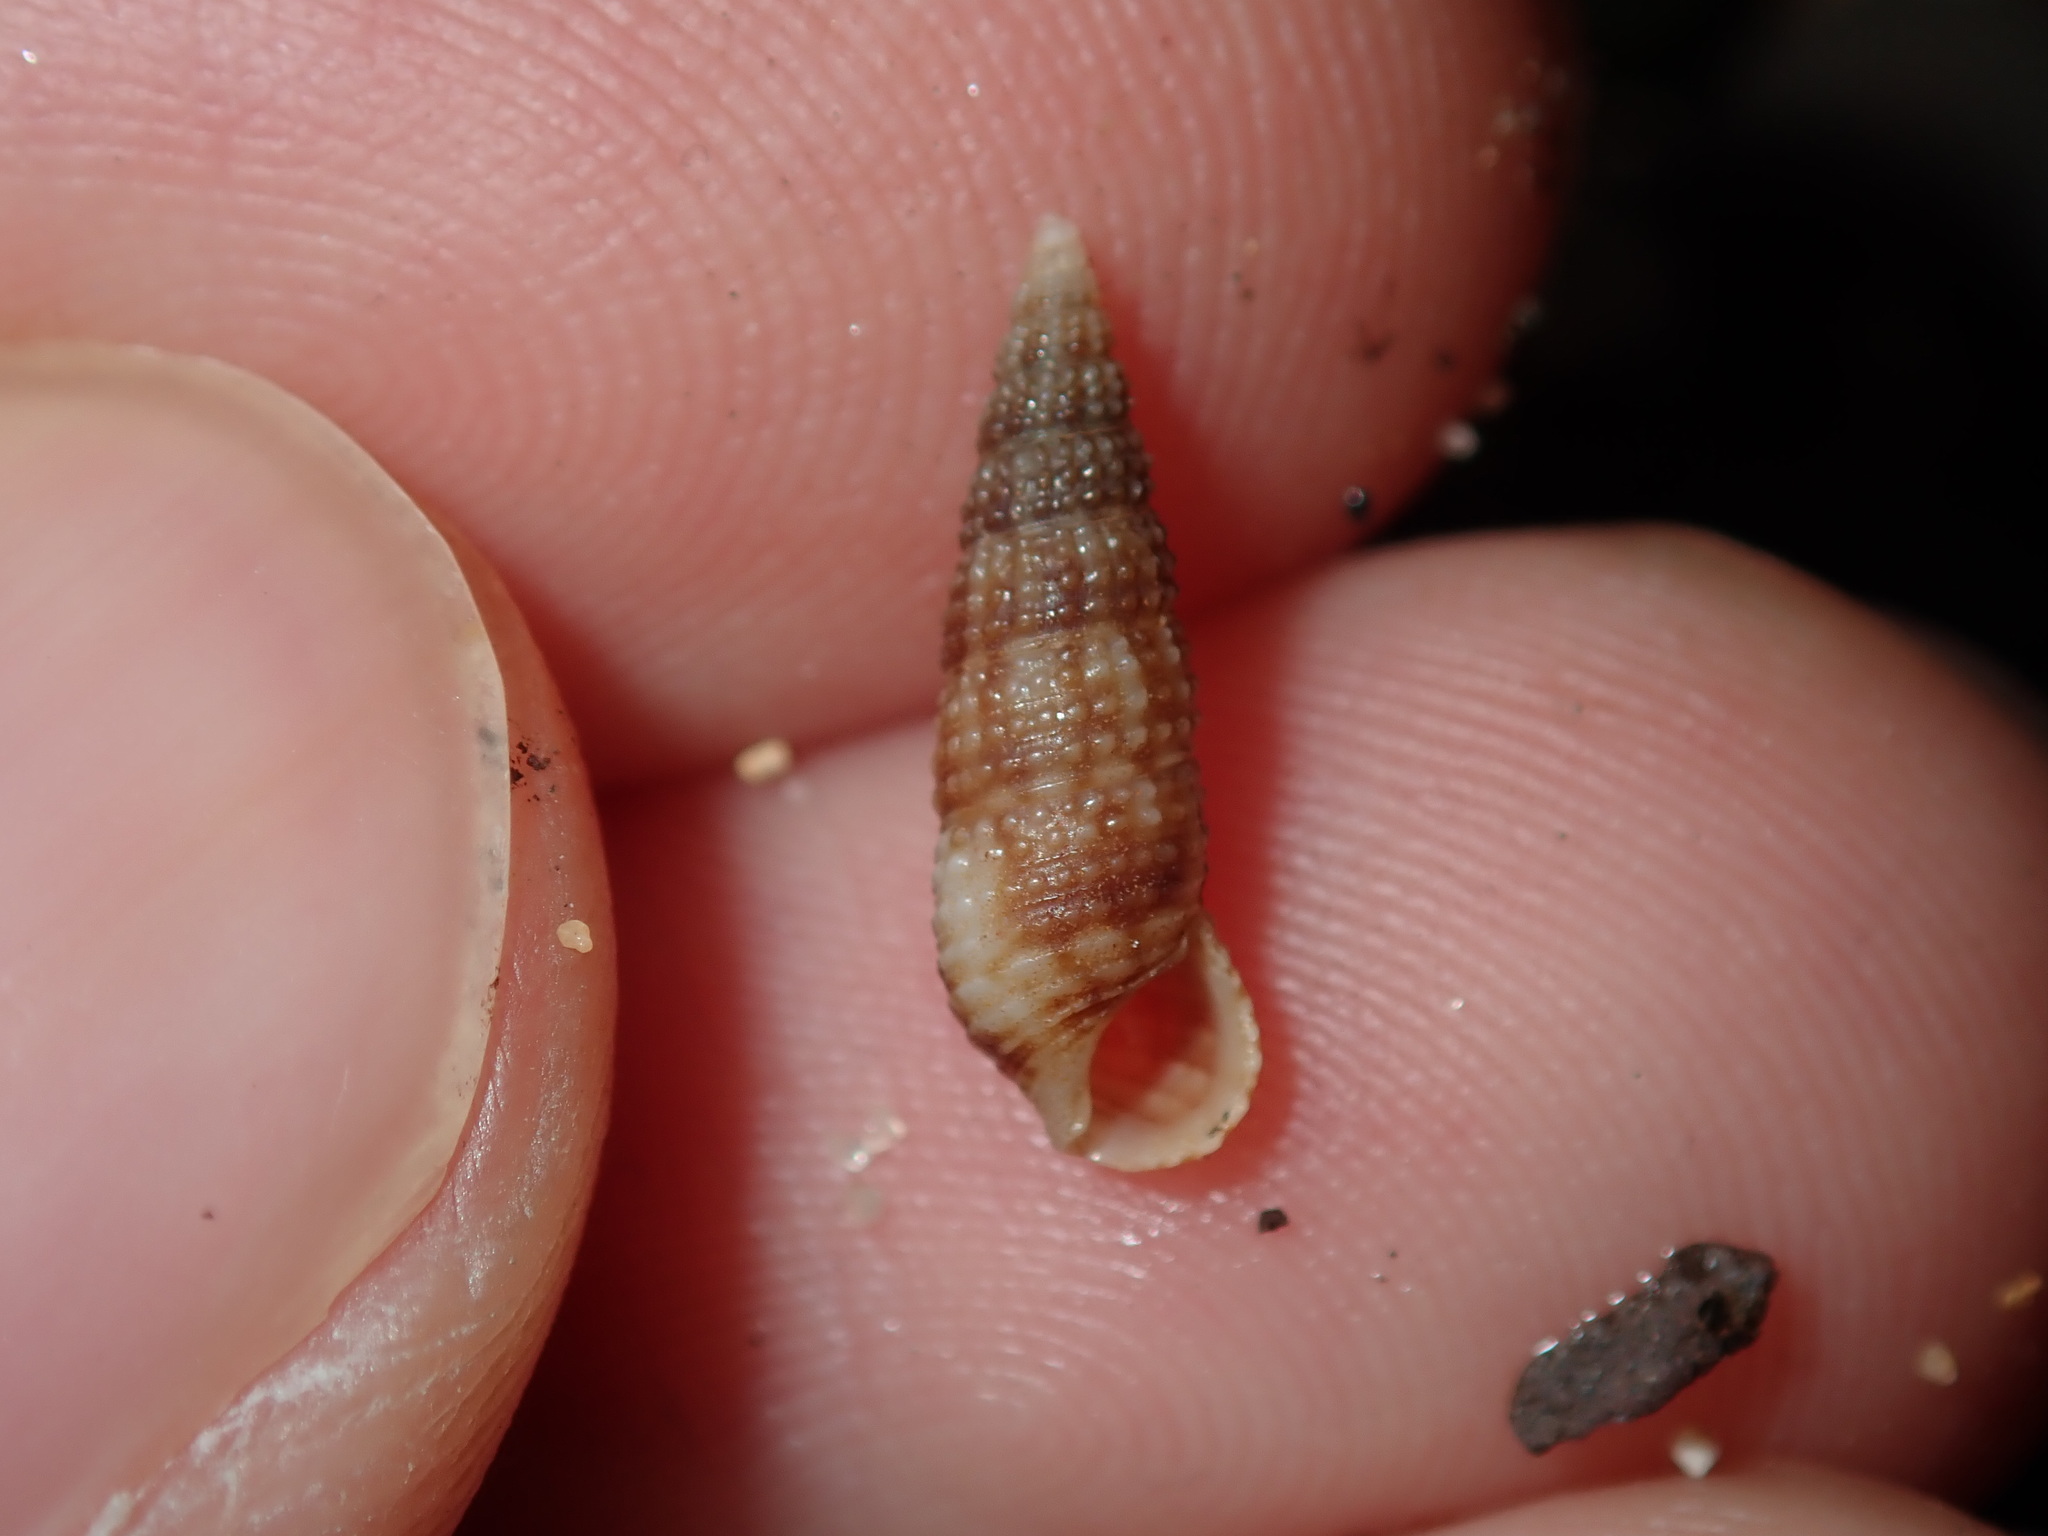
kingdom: Animalia
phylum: Mollusca
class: Gastropoda
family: Cerithiidae
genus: Cacozeliana
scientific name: Cacozeliana granarium
